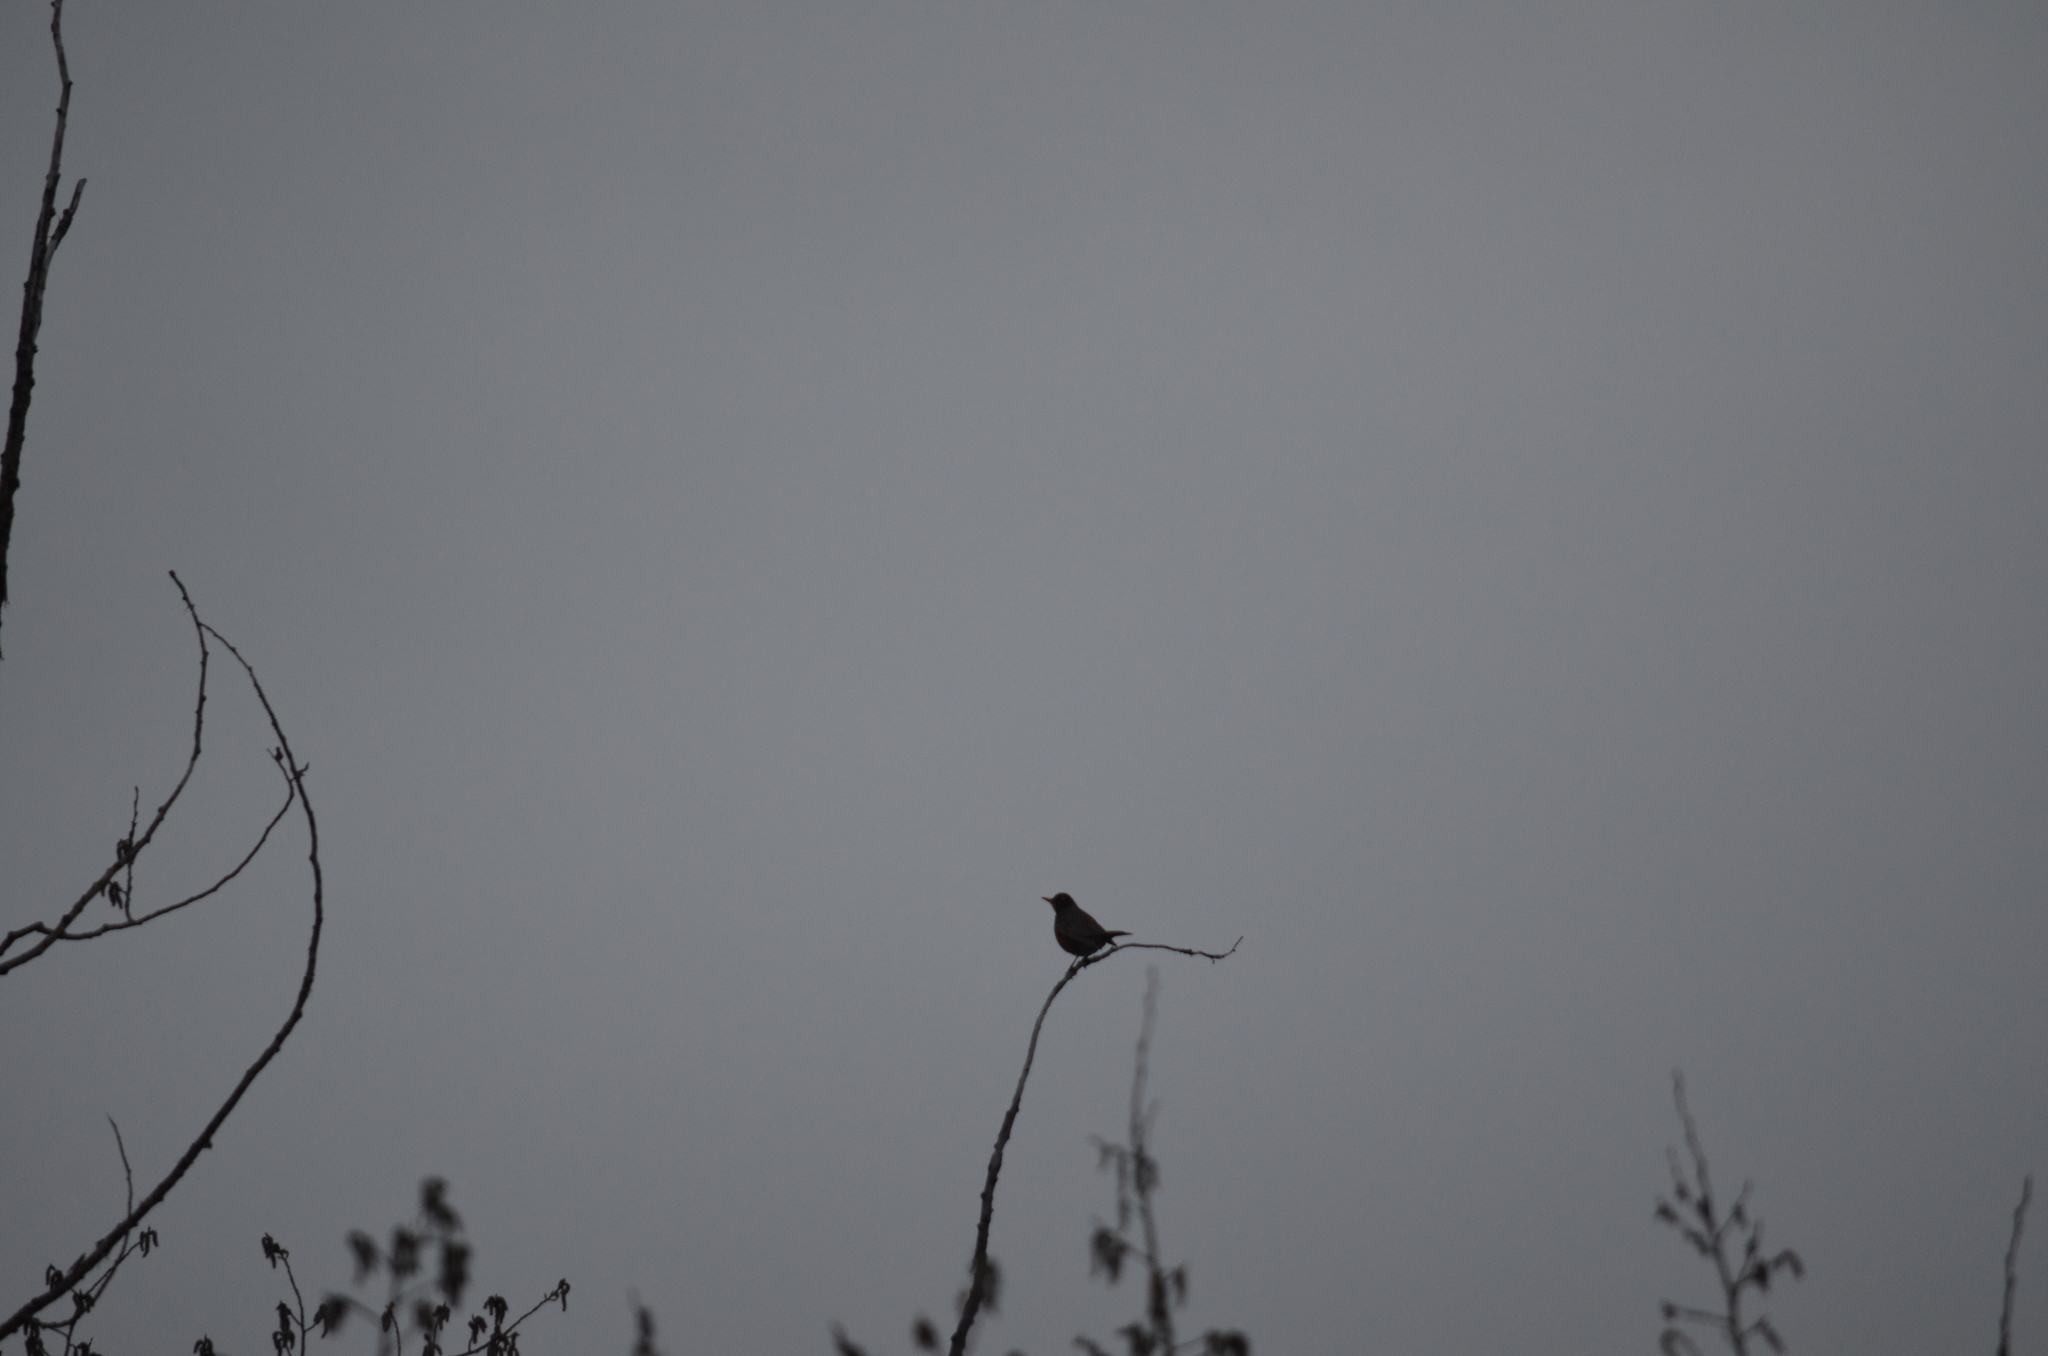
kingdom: Animalia
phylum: Chordata
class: Aves
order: Passeriformes
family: Turdidae
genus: Turdus
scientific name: Turdus migratorius
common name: American robin
